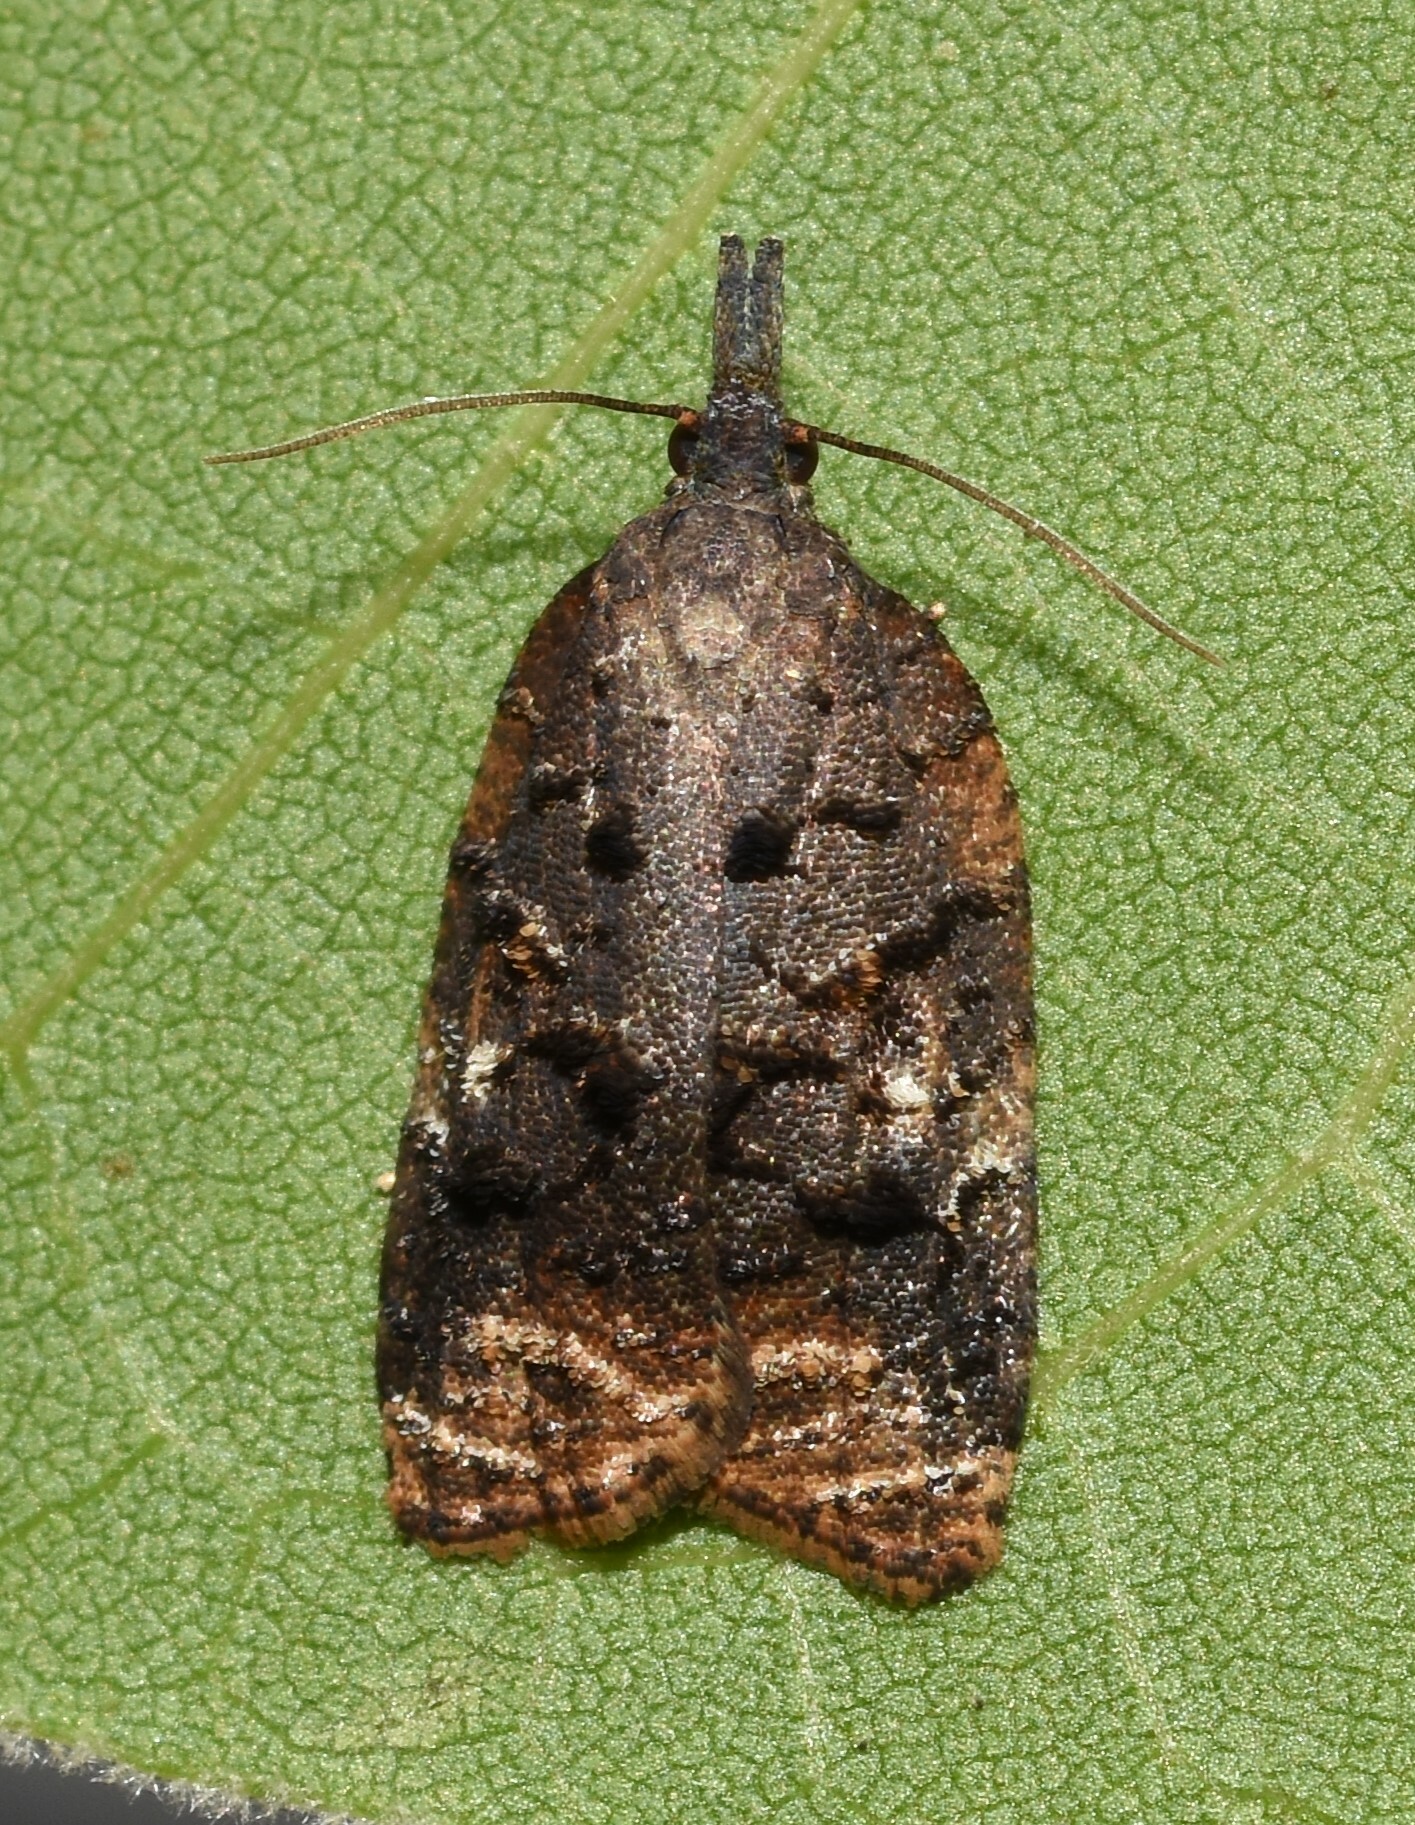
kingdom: Animalia
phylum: Arthropoda
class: Insecta
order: Lepidoptera
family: Tortricidae
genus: Platynota
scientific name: Platynota semiustana
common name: Singed platynota
